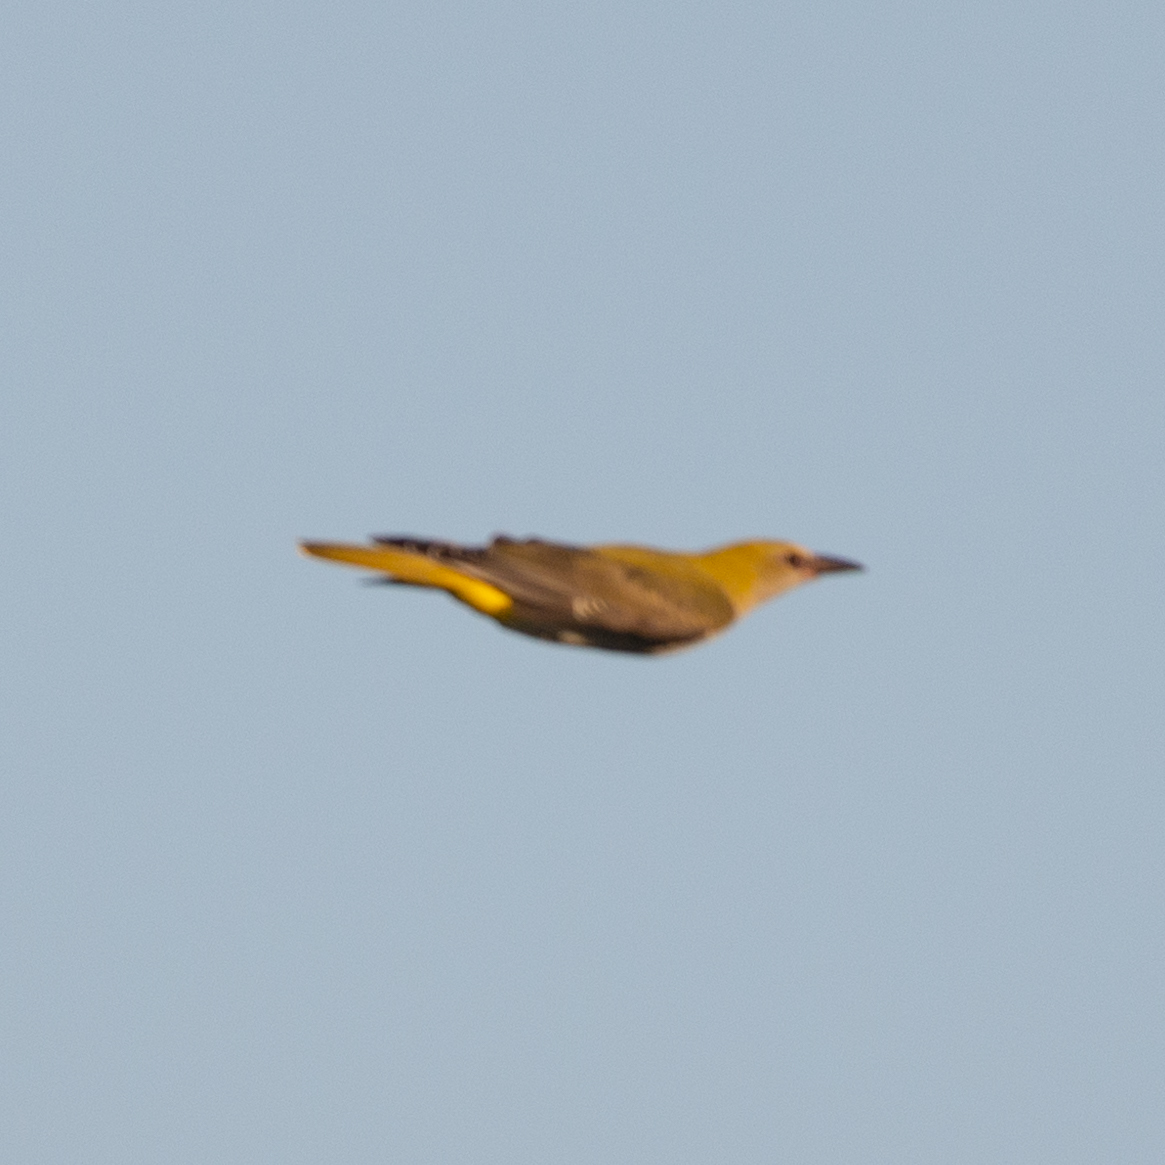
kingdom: Animalia
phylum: Chordata
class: Aves
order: Passeriformes
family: Oriolidae
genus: Oriolus
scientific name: Oriolus oriolus
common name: Eurasian golden oriole
